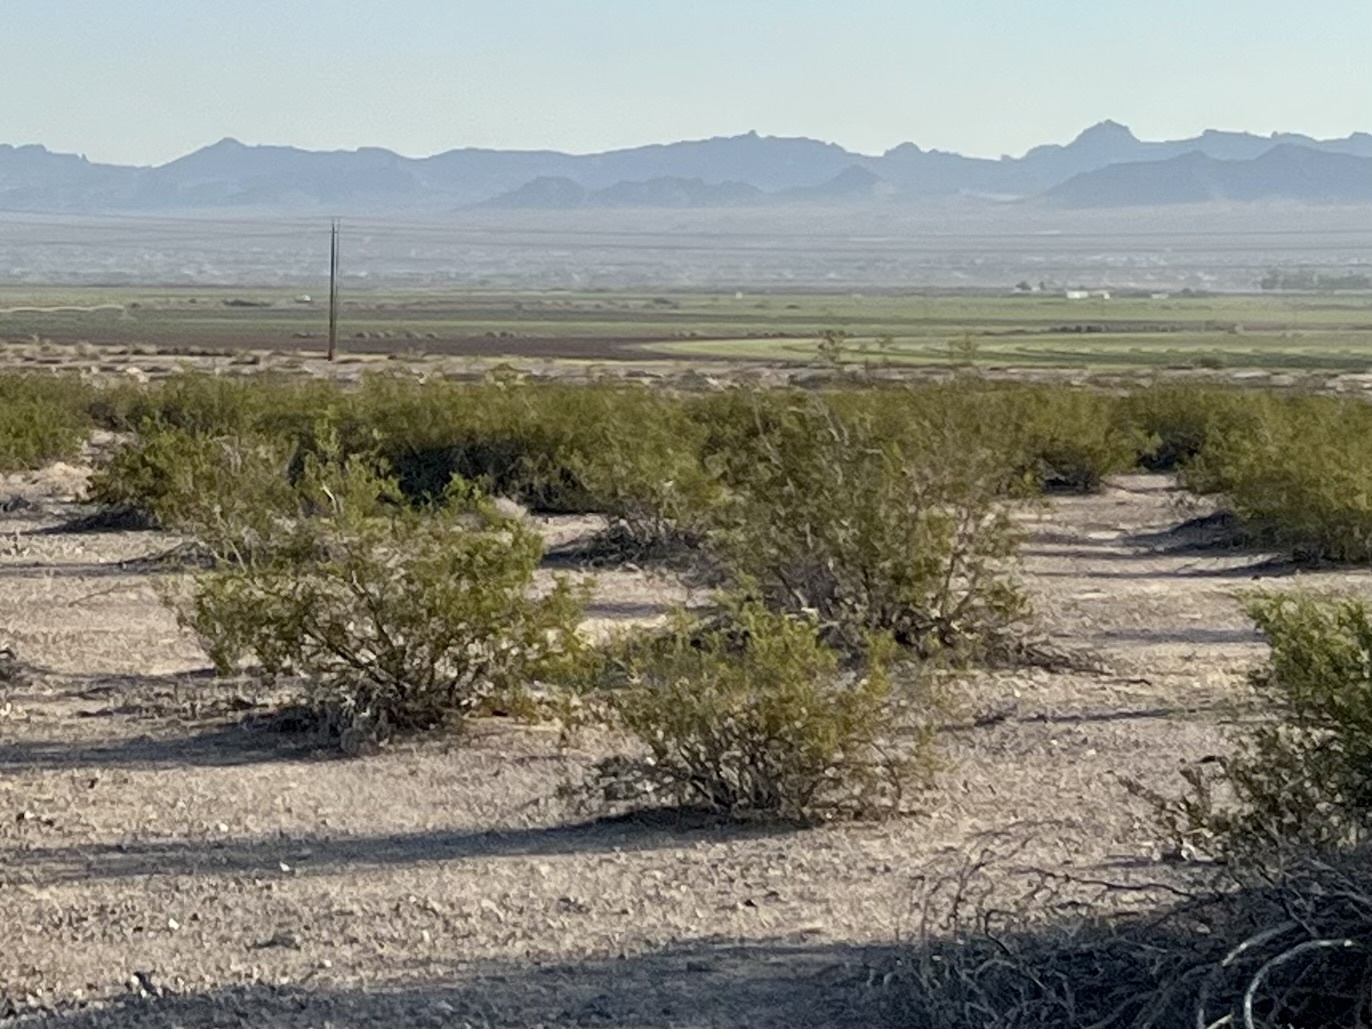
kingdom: Plantae
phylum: Tracheophyta
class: Magnoliopsida
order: Zygophyllales
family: Zygophyllaceae
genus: Larrea
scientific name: Larrea tridentata
